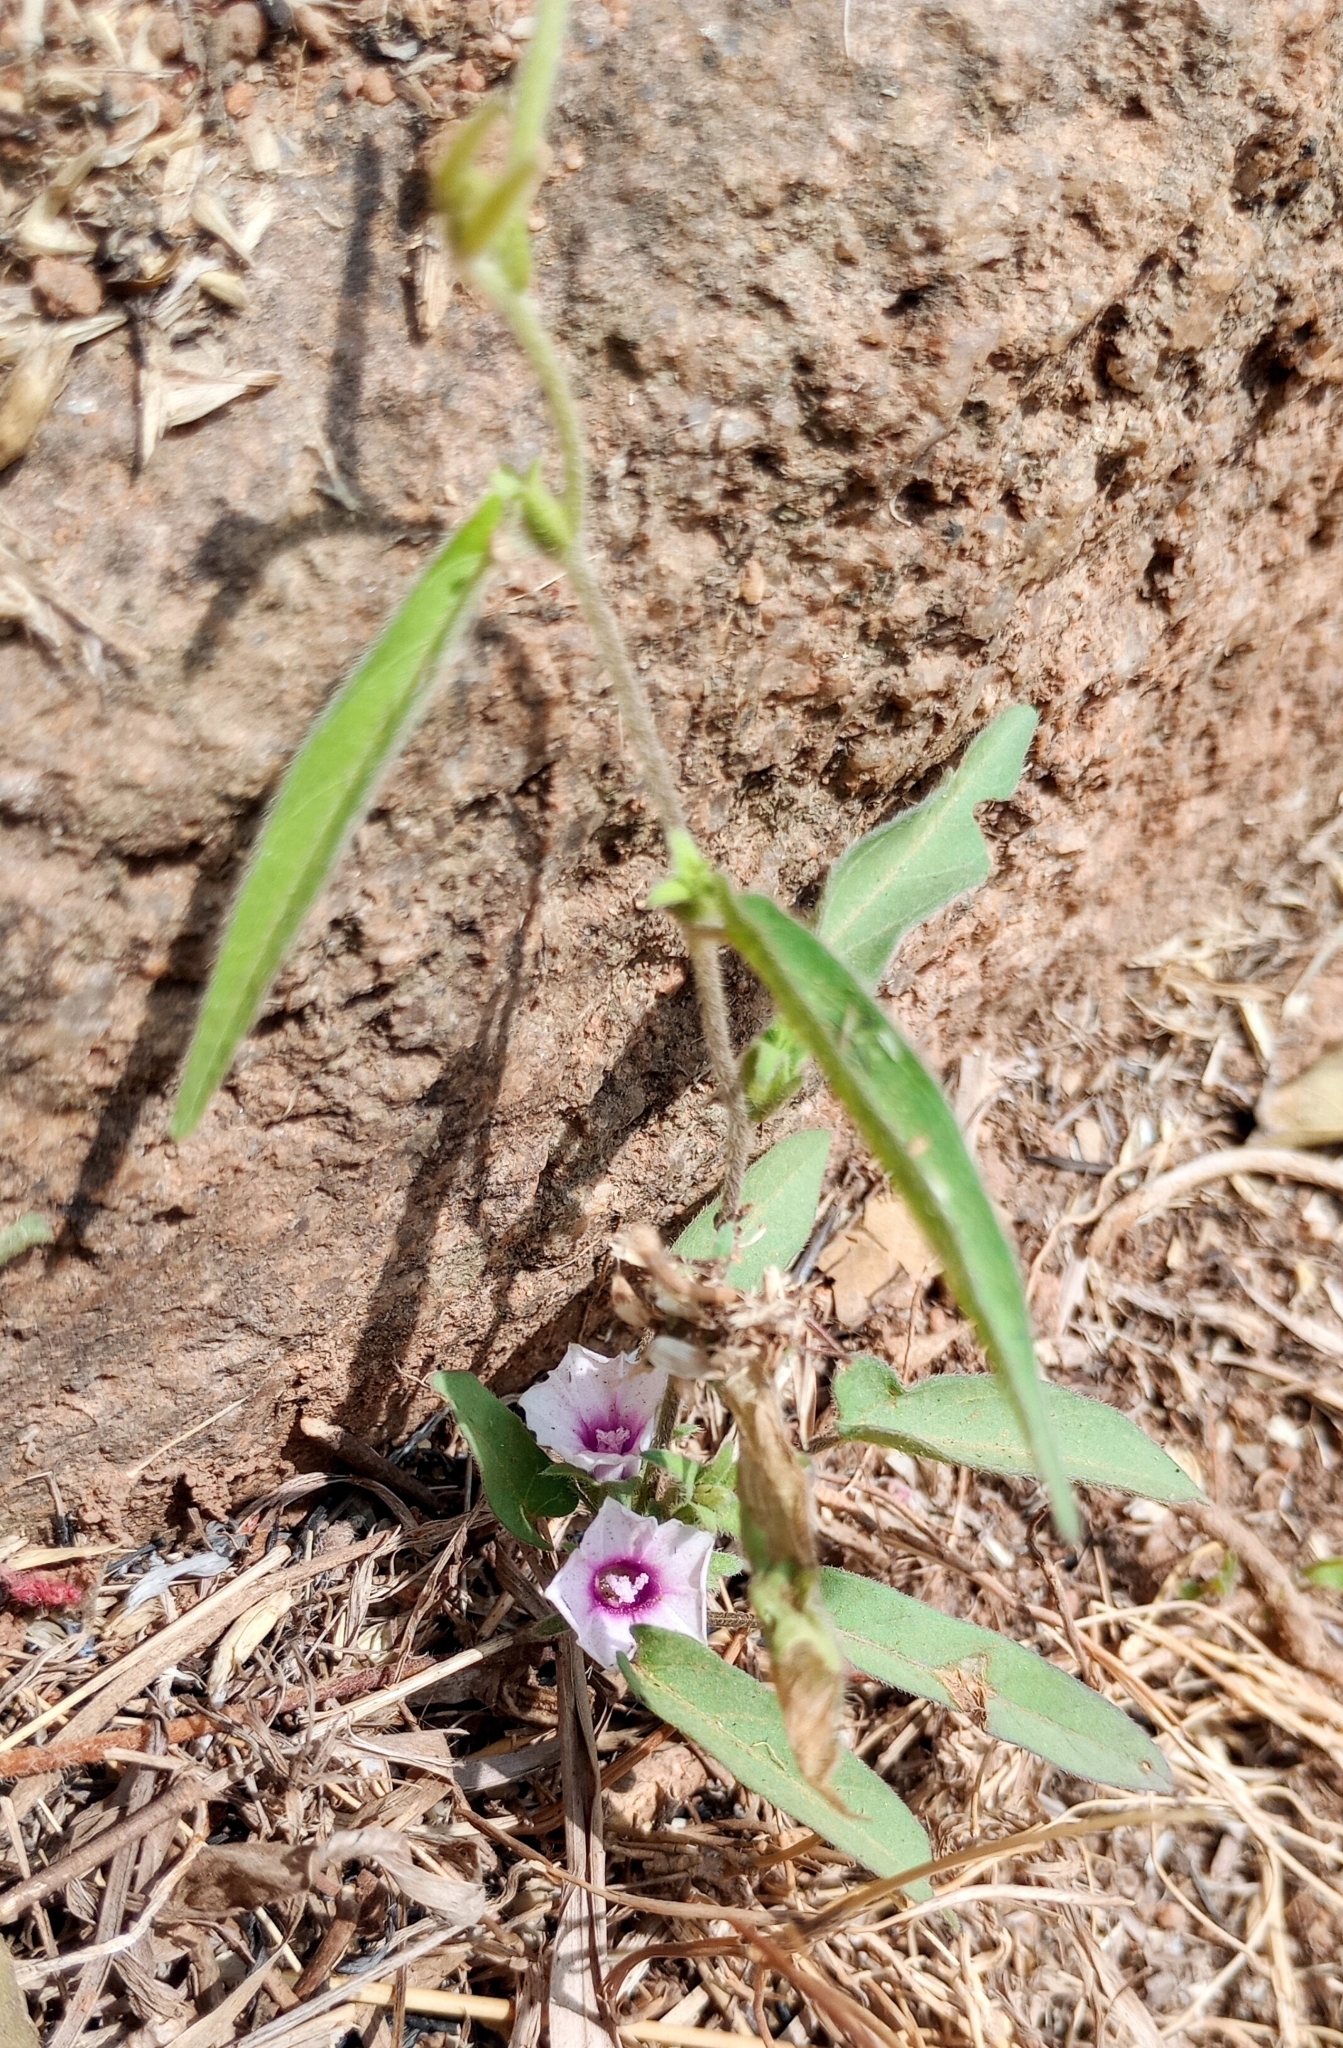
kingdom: Plantae
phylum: Tracheophyta
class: Magnoliopsida
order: Solanales
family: Convolvulaceae
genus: Ipomoea
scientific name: Ipomoea eriocarpa
